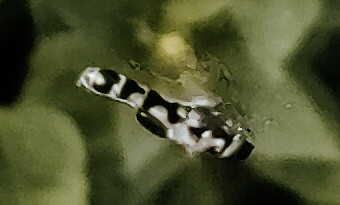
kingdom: Animalia
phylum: Arthropoda
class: Insecta
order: Diptera
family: Syrphidae
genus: Syritta
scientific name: Syritta pipiens
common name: Hover fly
